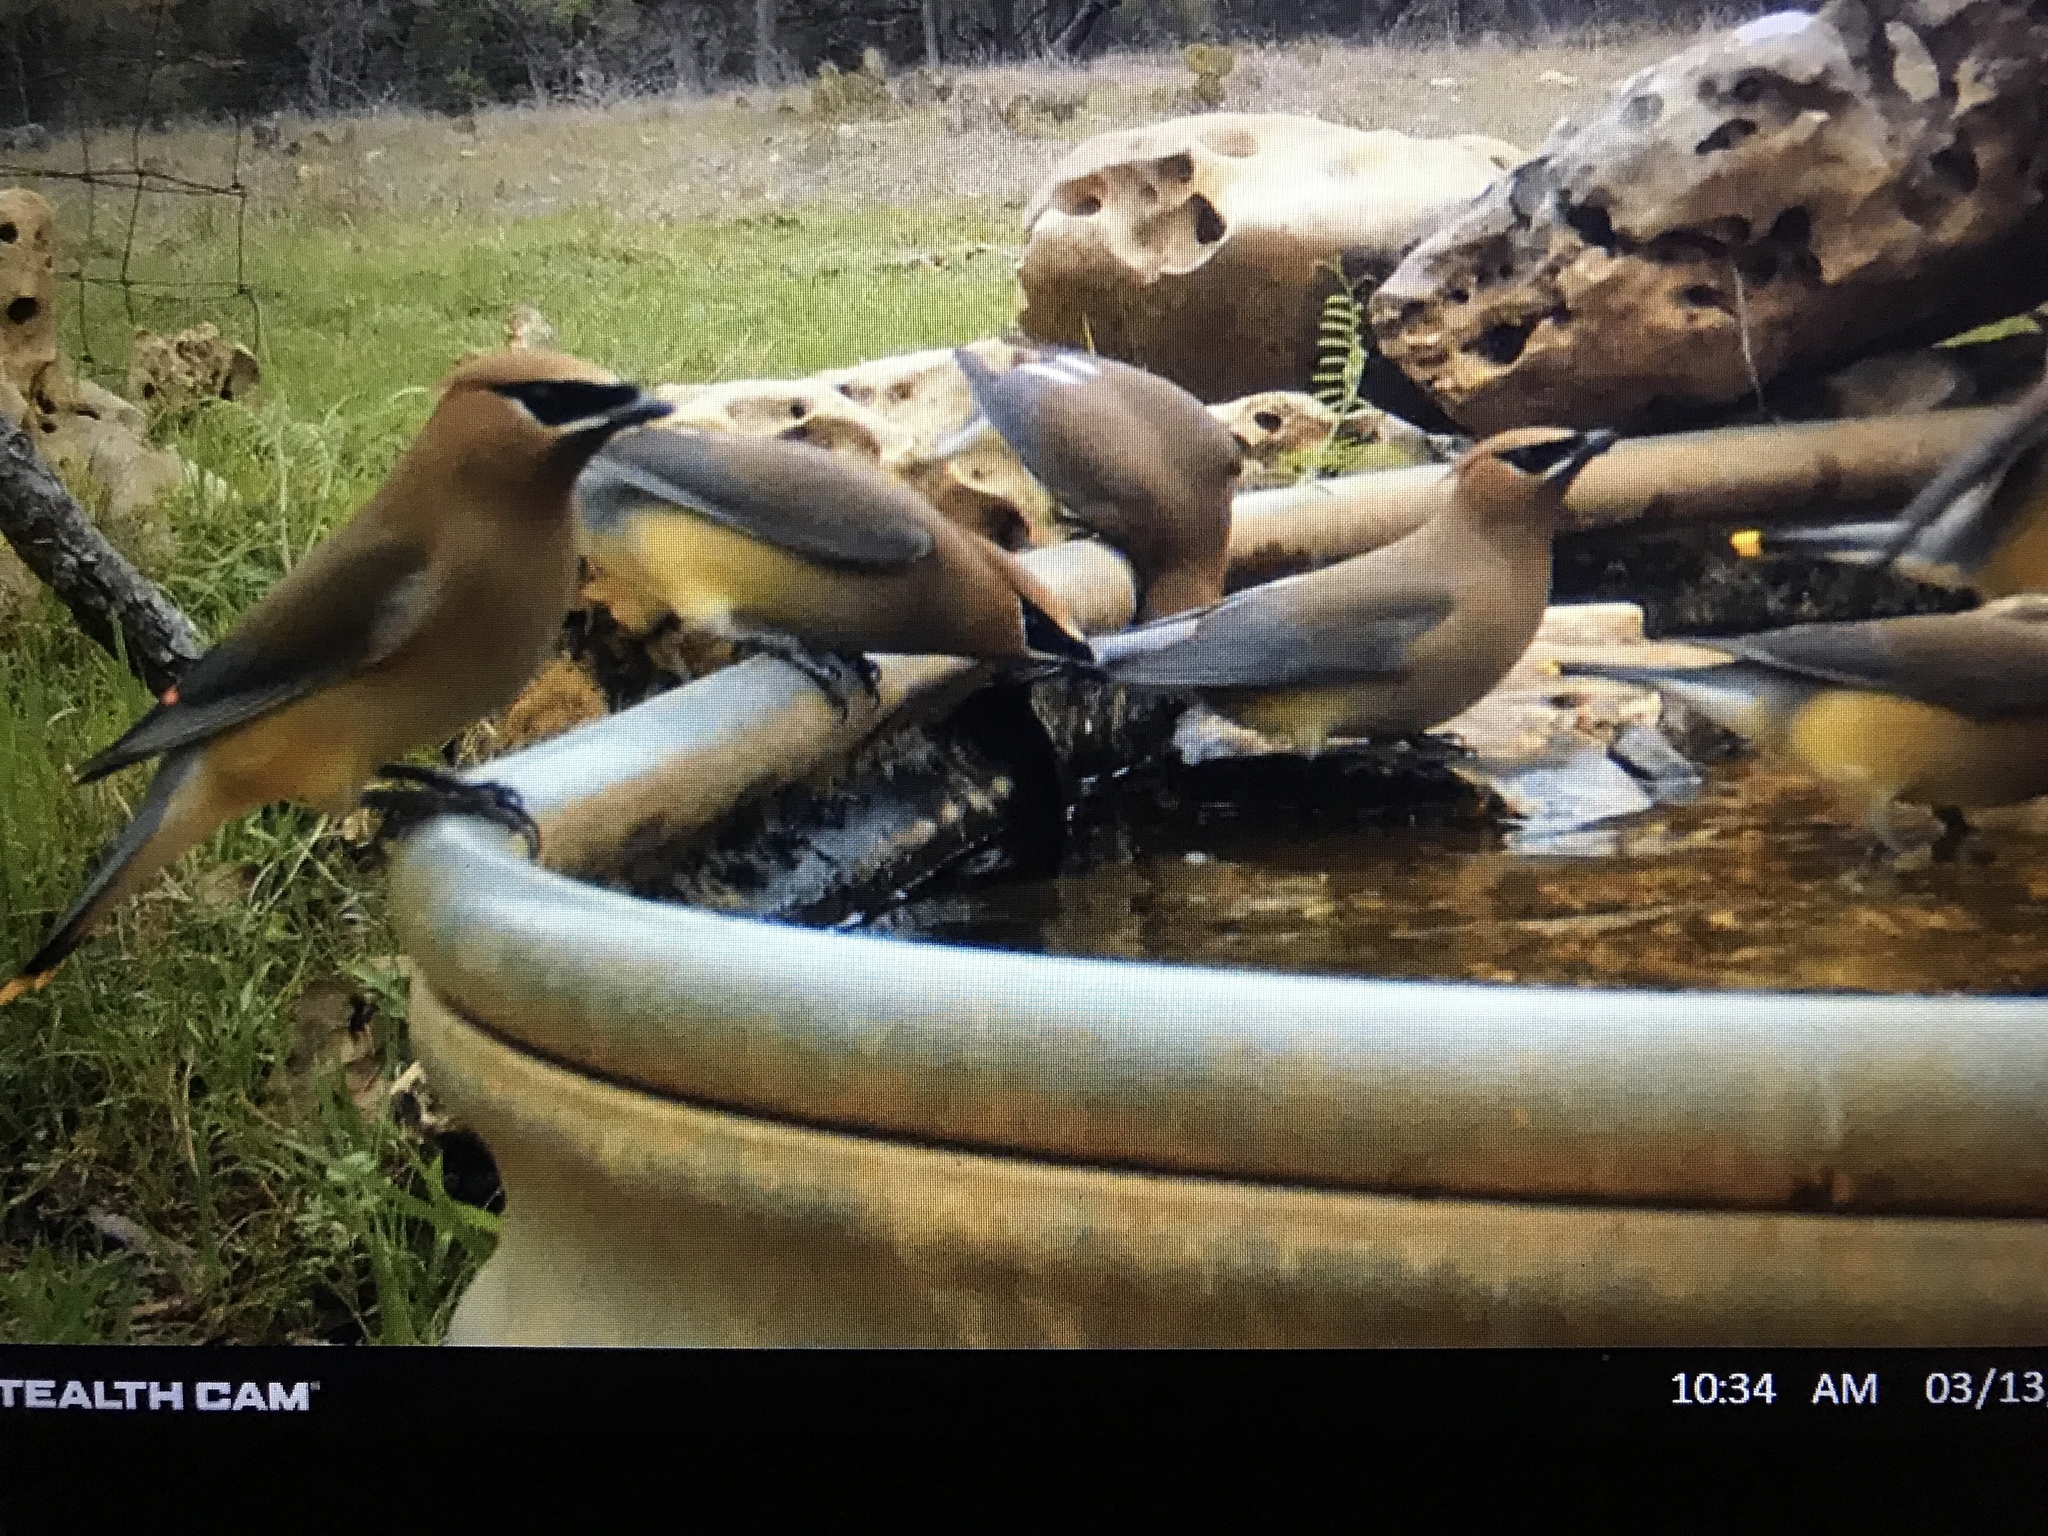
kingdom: Animalia
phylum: Chordata
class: Aves
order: Passeriformes
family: Bombycillidae
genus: Bombycilla
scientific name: Bombycilla cedrorum
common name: Cedar waxwing
